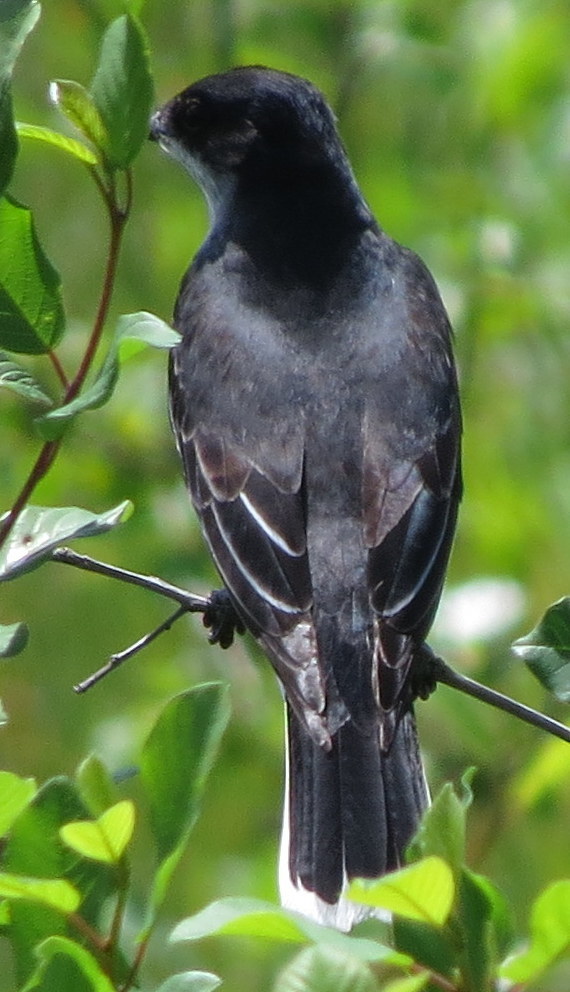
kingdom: Animalia
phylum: Chordata
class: Aves
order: Passeriformes
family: Tyrannidae
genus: Tyrannus
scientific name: Tyrannus tyrannus
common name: Eastern kingbird
